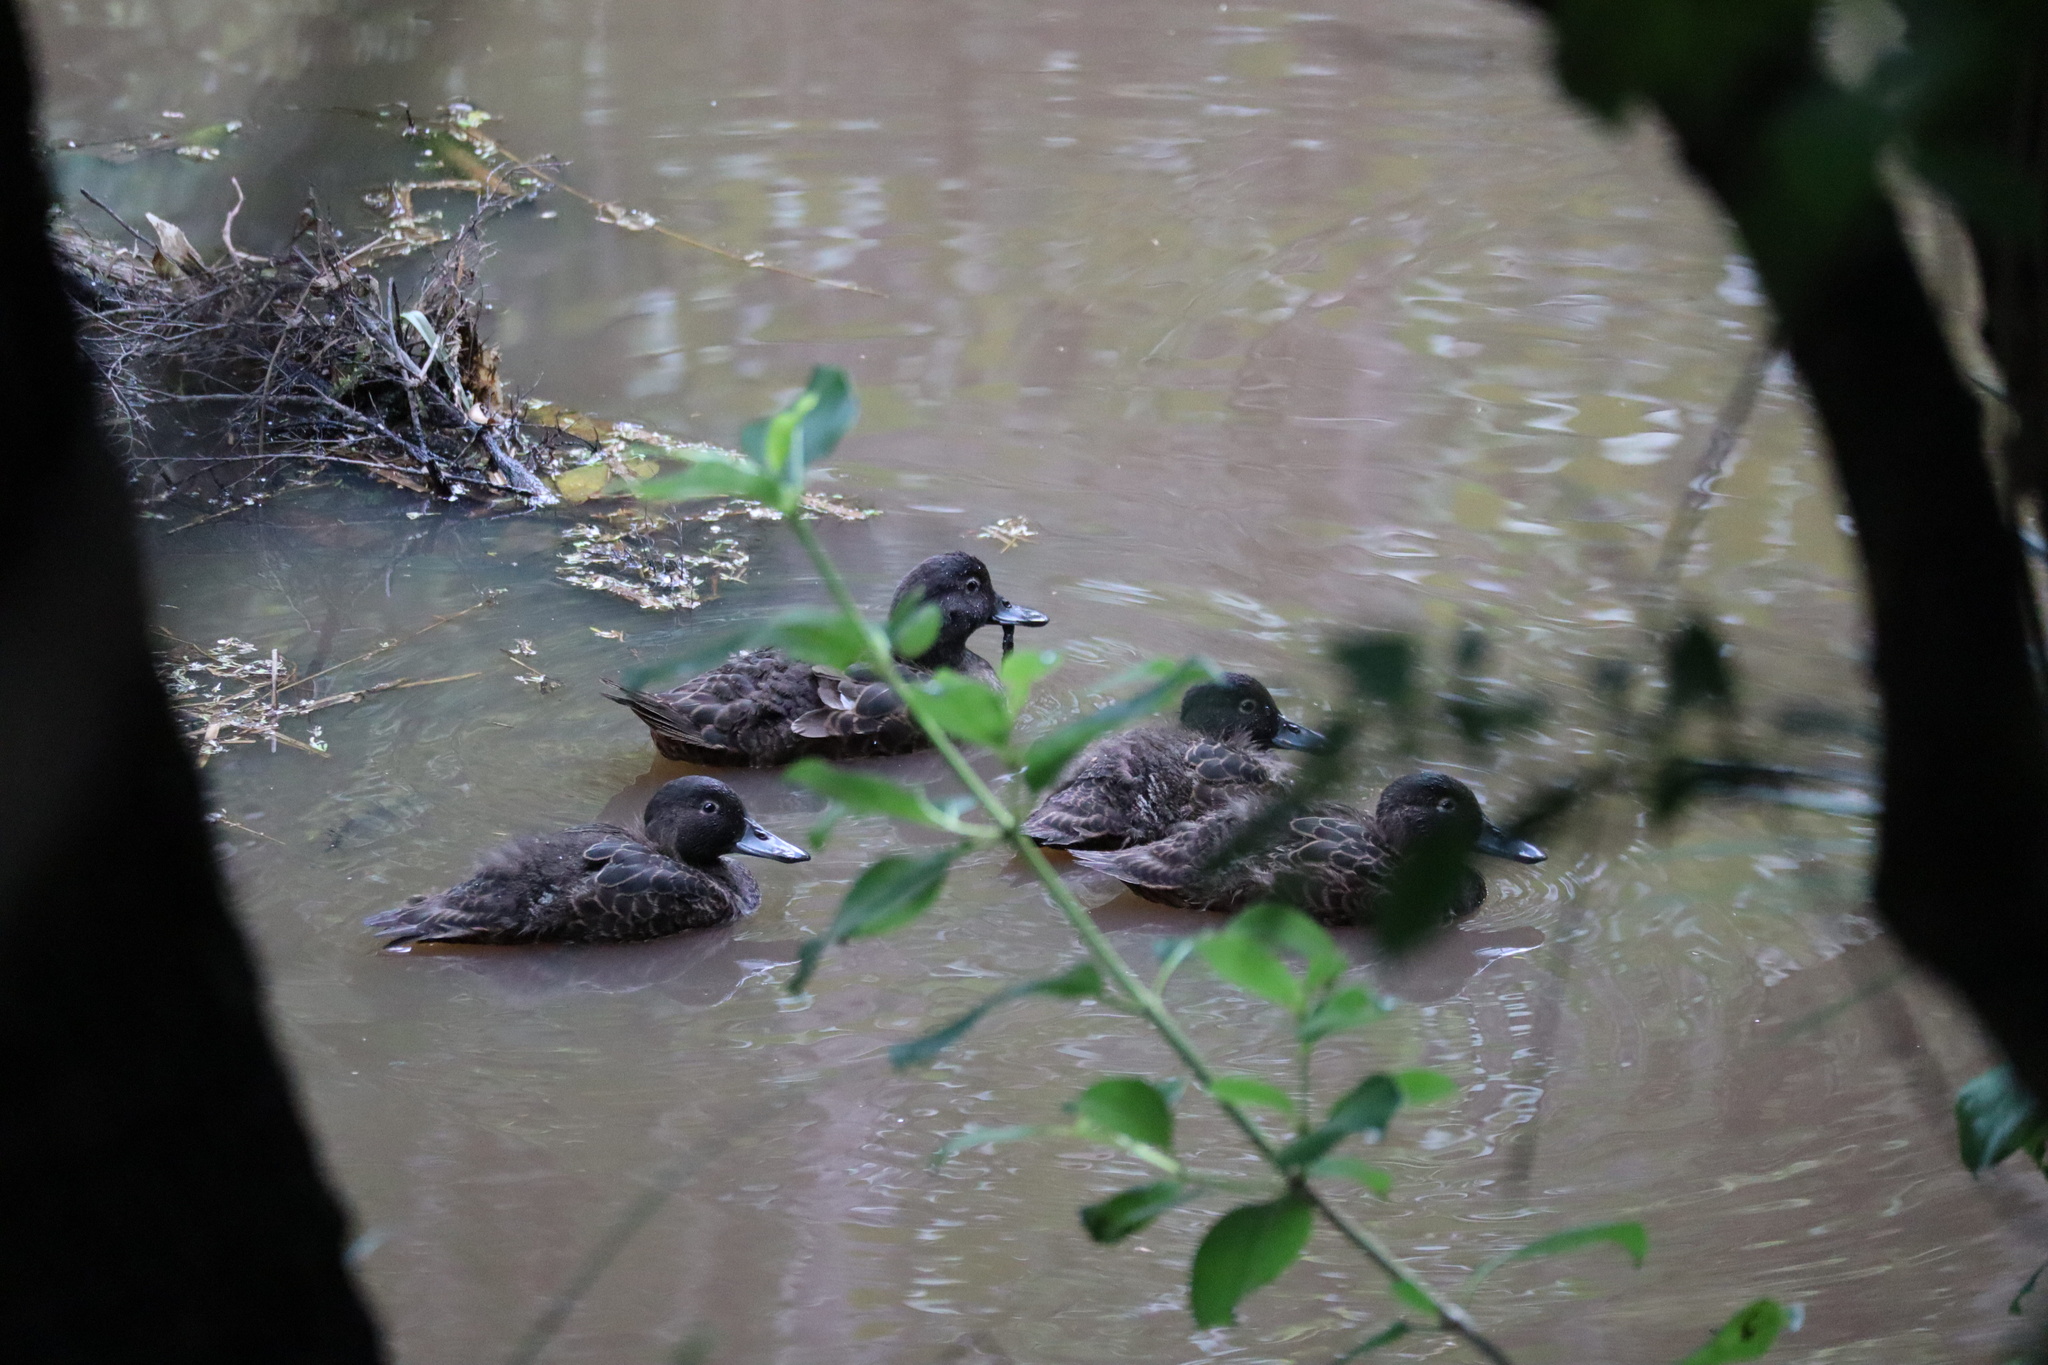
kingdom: Animalia
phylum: Chordata
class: Aves
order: Anseriformes
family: Anatidae
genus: Anas
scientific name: Anas chlorotis
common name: Brown teal
